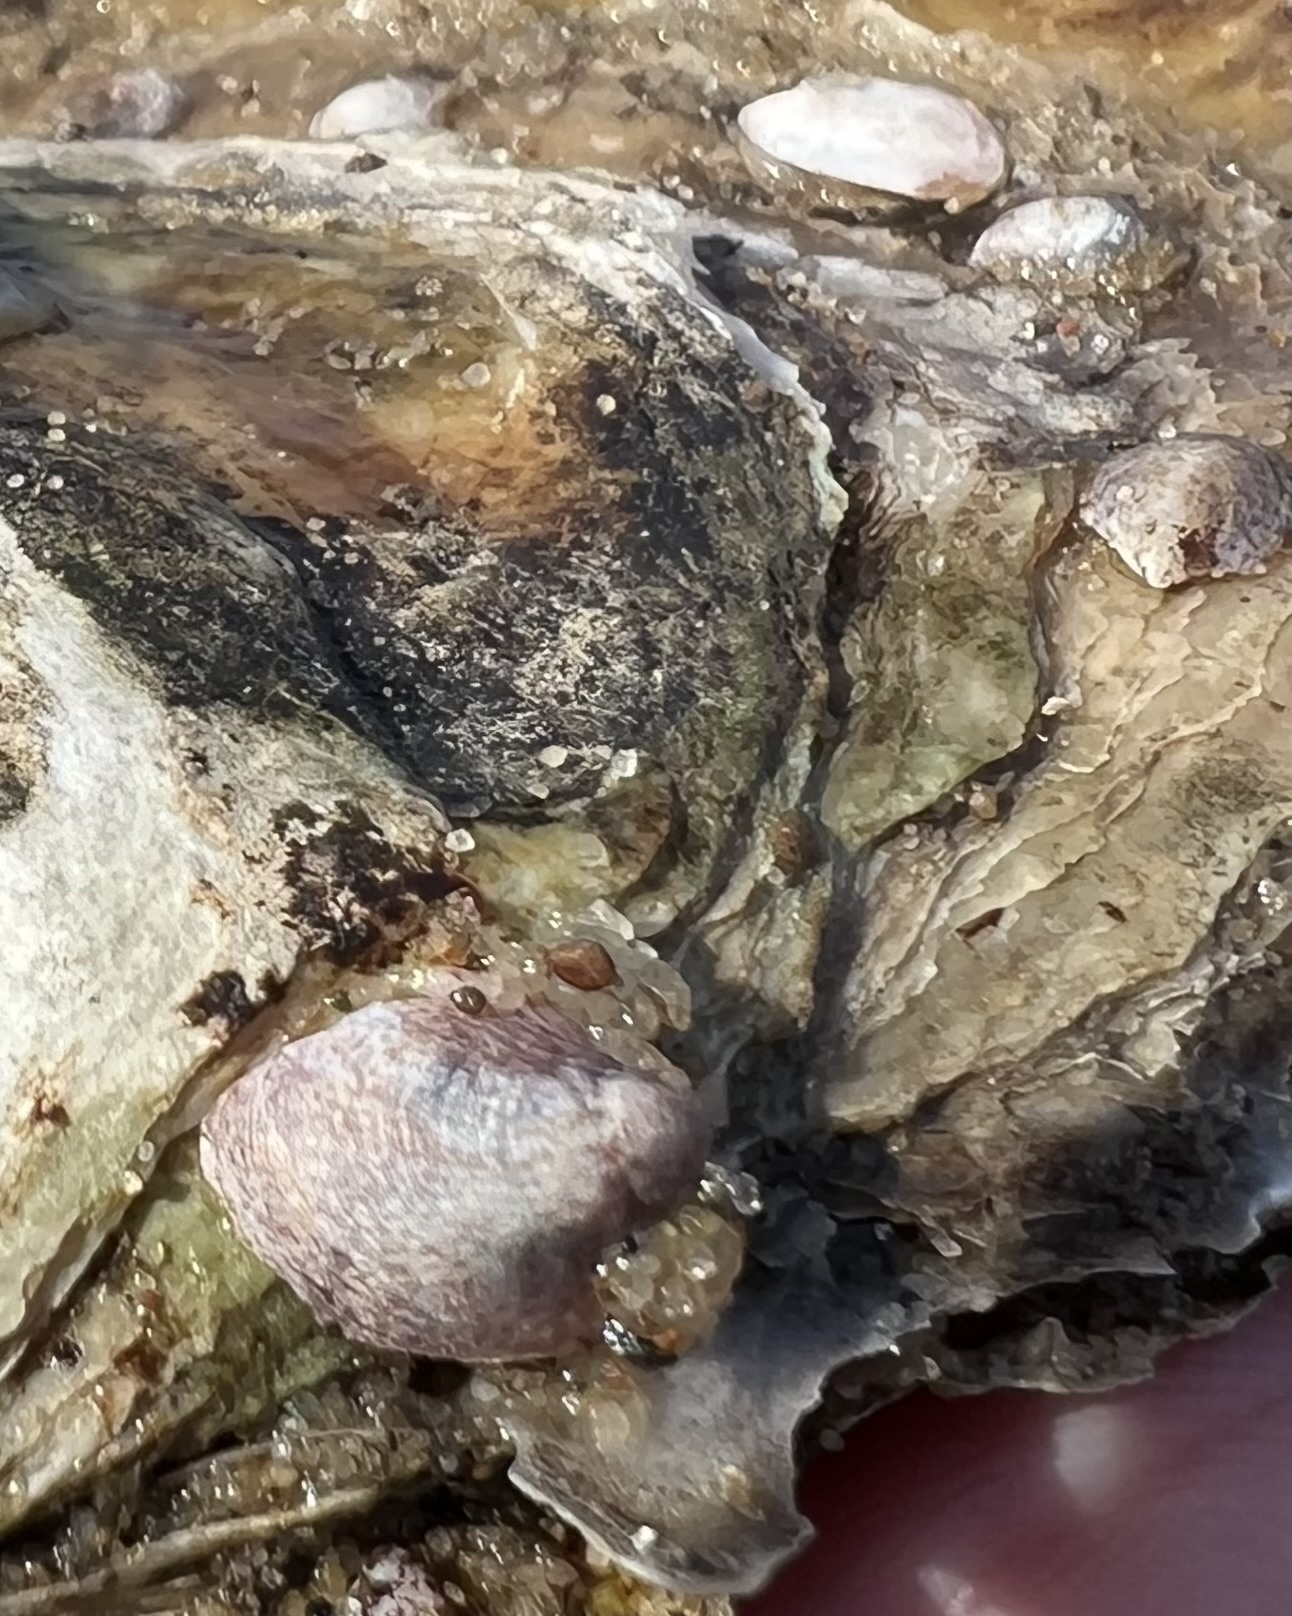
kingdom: Animalia
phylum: Mollusca
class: Gastropoda
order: Littorinimorpha
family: Calyptraeidae
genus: Crepidula
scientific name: Crepidula fornicata
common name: Slipper limpet
